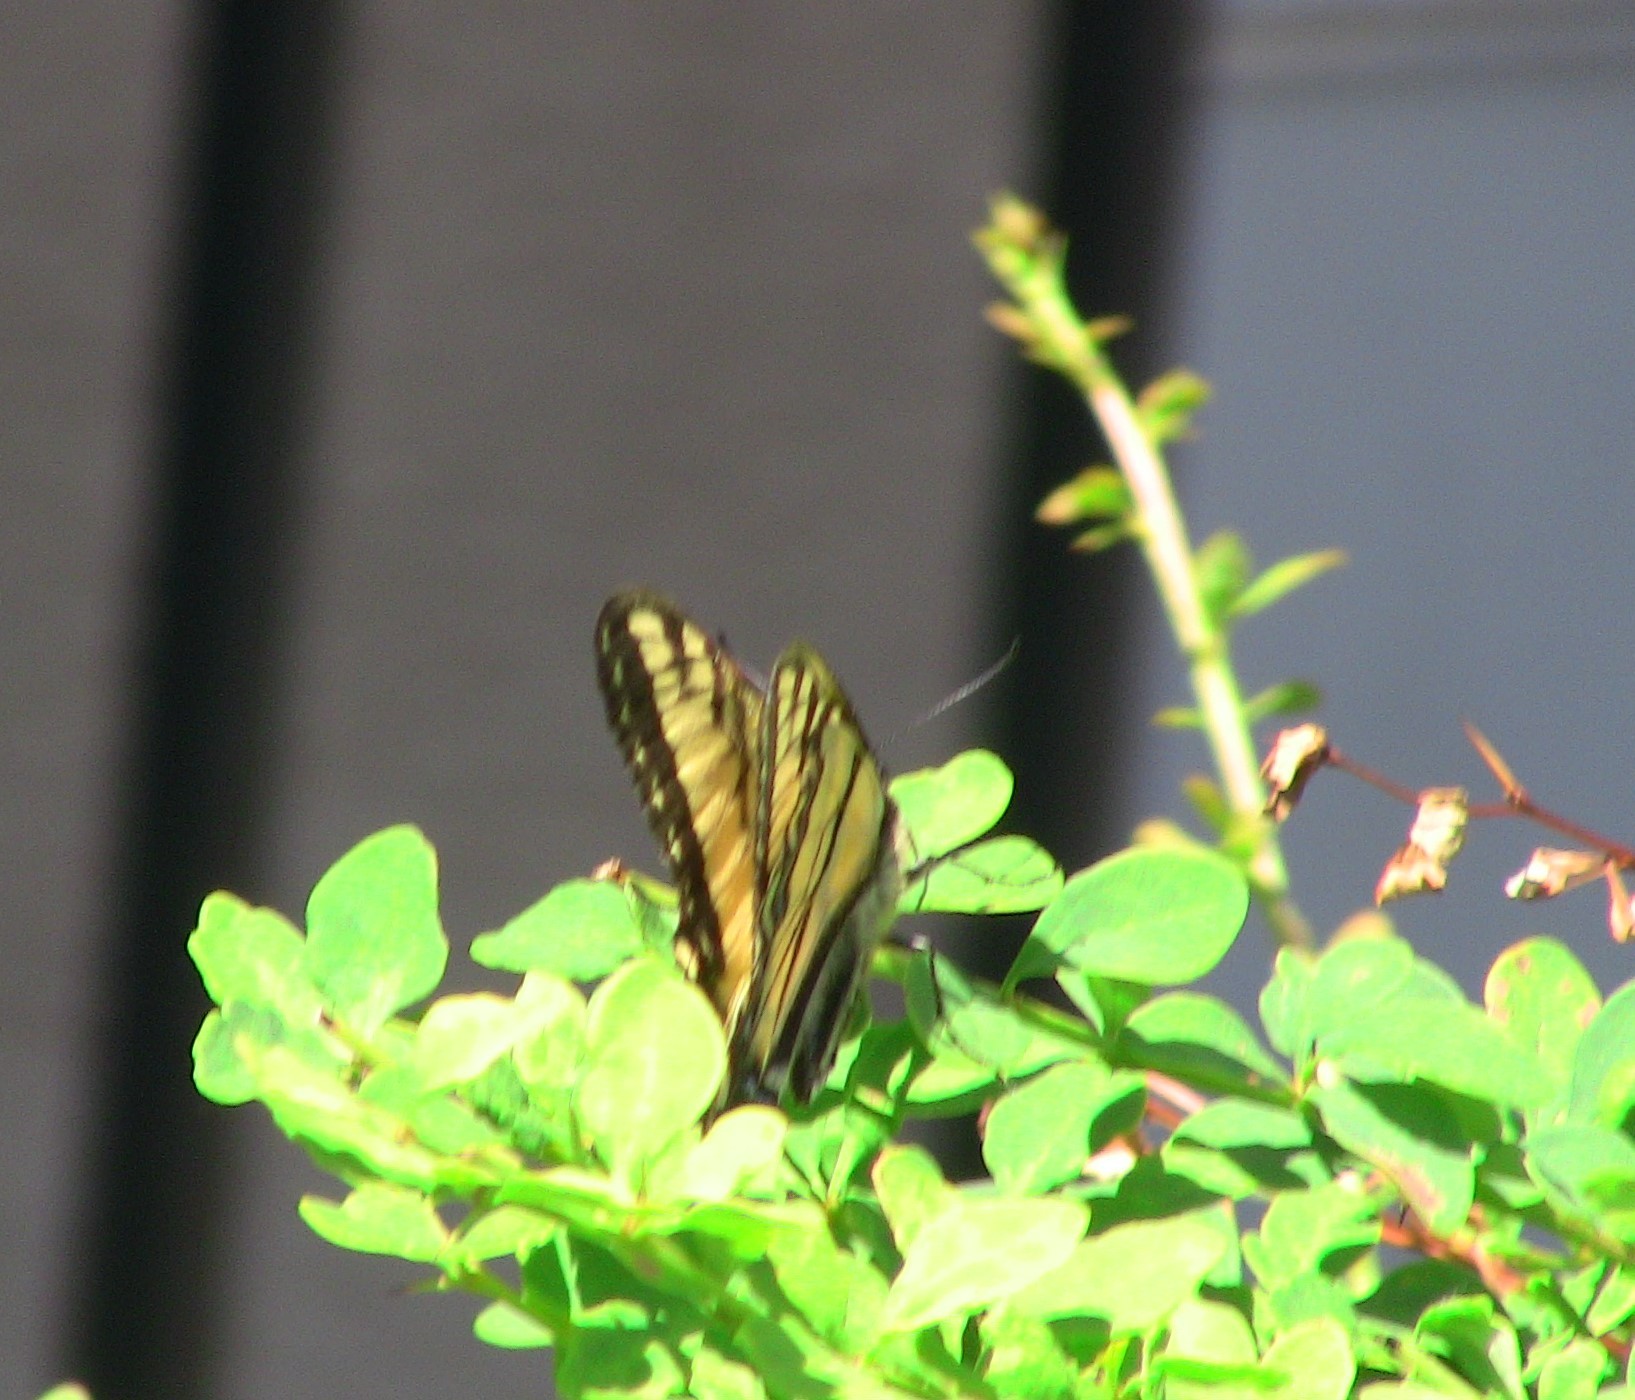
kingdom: Animalia
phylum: Arthropoda
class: Insecta
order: Lepidoptera
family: Papilionidae
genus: Papilio
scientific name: Papilio canadensis
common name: Canadian tiger swallowtail
